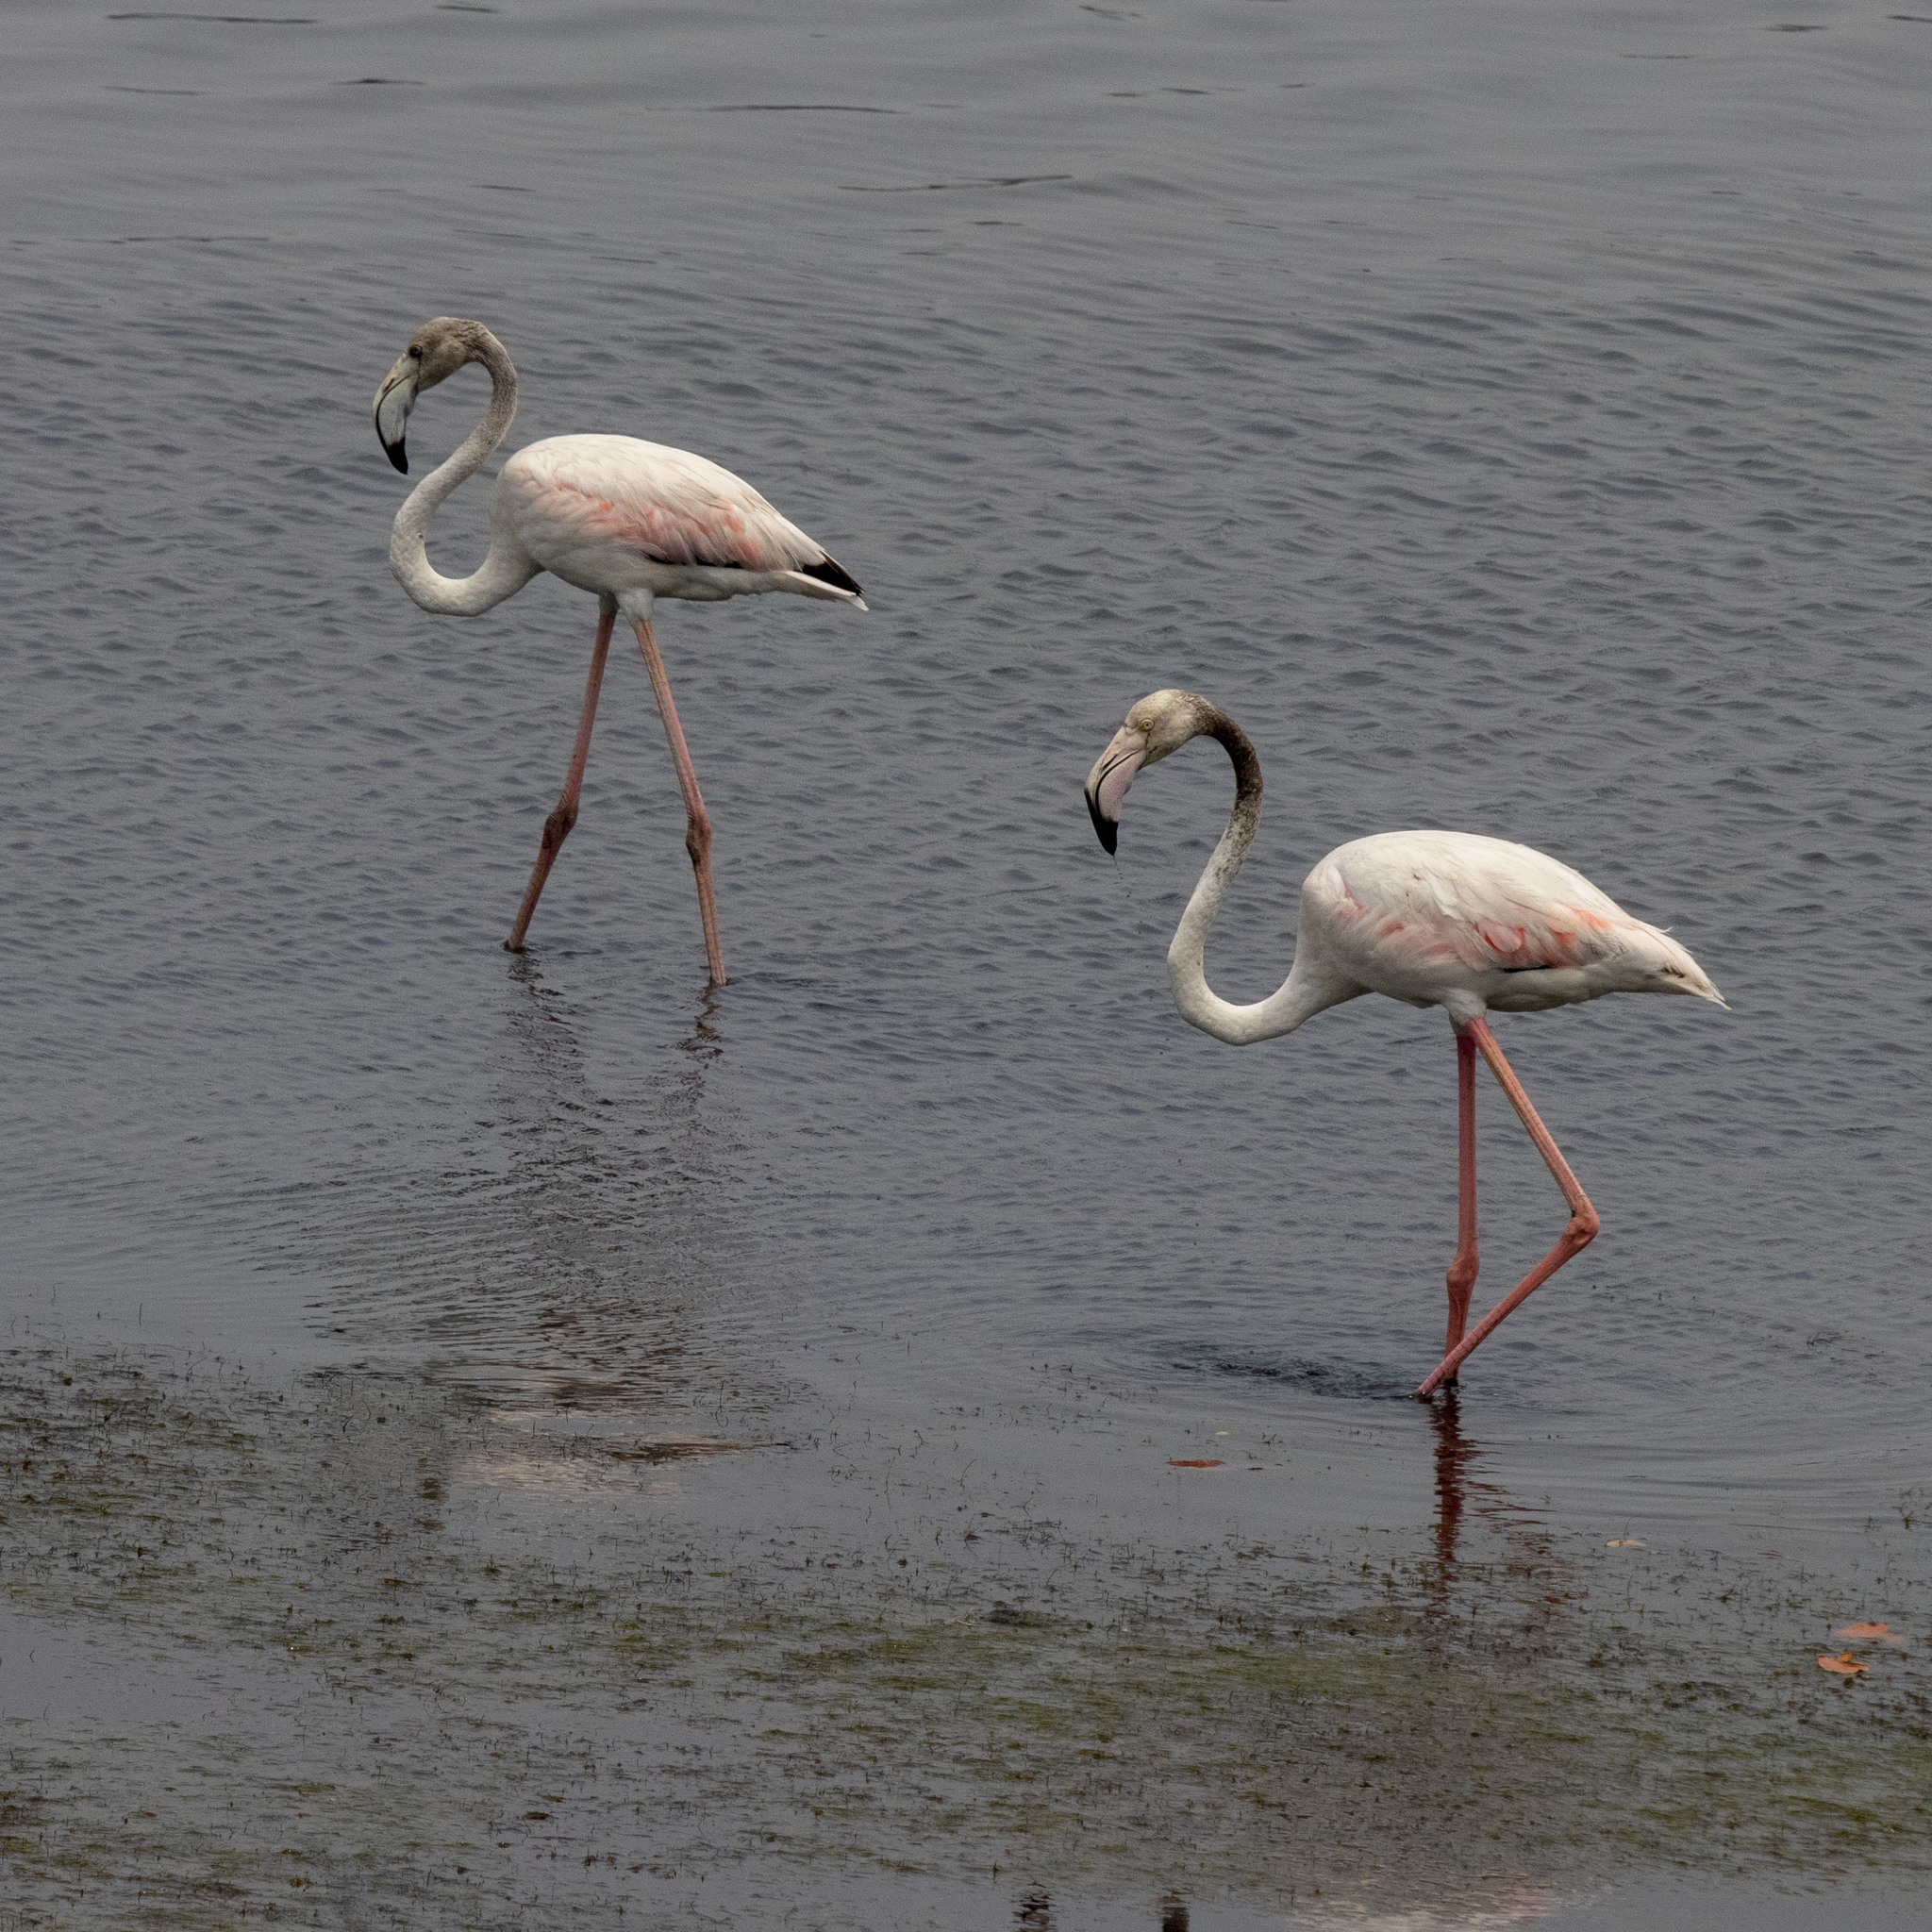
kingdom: Animalia
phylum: Chordata
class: Aves
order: Phoenicopteriformes
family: Phoenicopteridae
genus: Phoenicopterus
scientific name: Phoenicopterus roseus
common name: Greater flamingo
